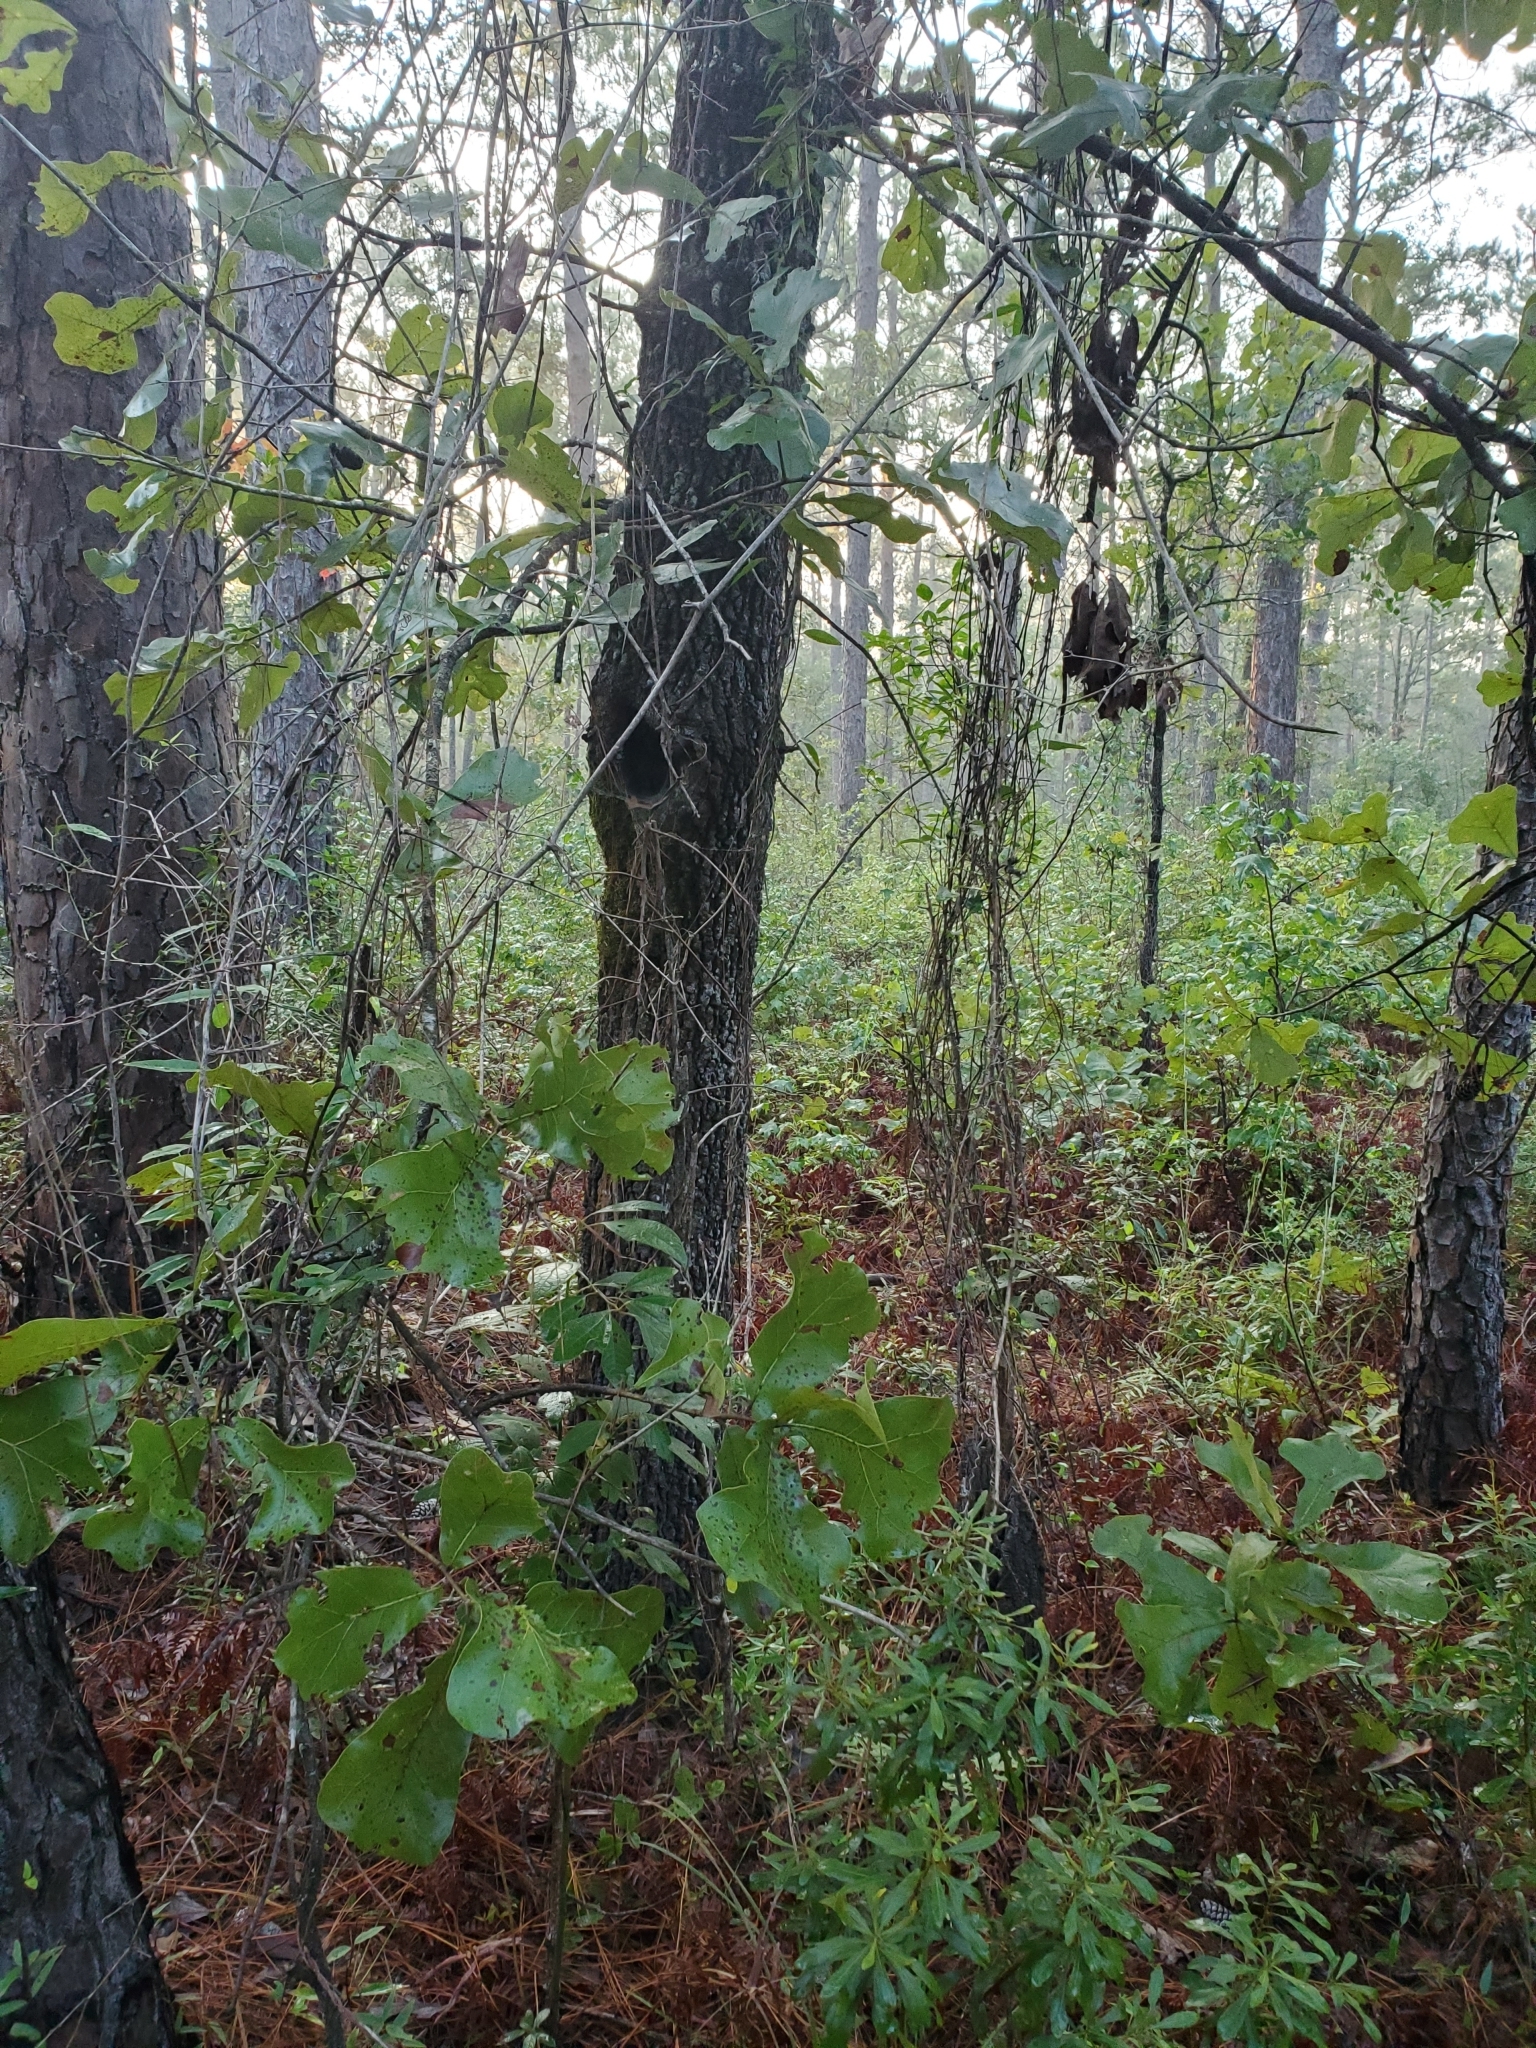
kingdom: Plantae
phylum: Tracheophyta
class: Magnoliopsida
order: Fagales
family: Fagaceae
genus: Quercus
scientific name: Quercus marilandica
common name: Blackjack oak
